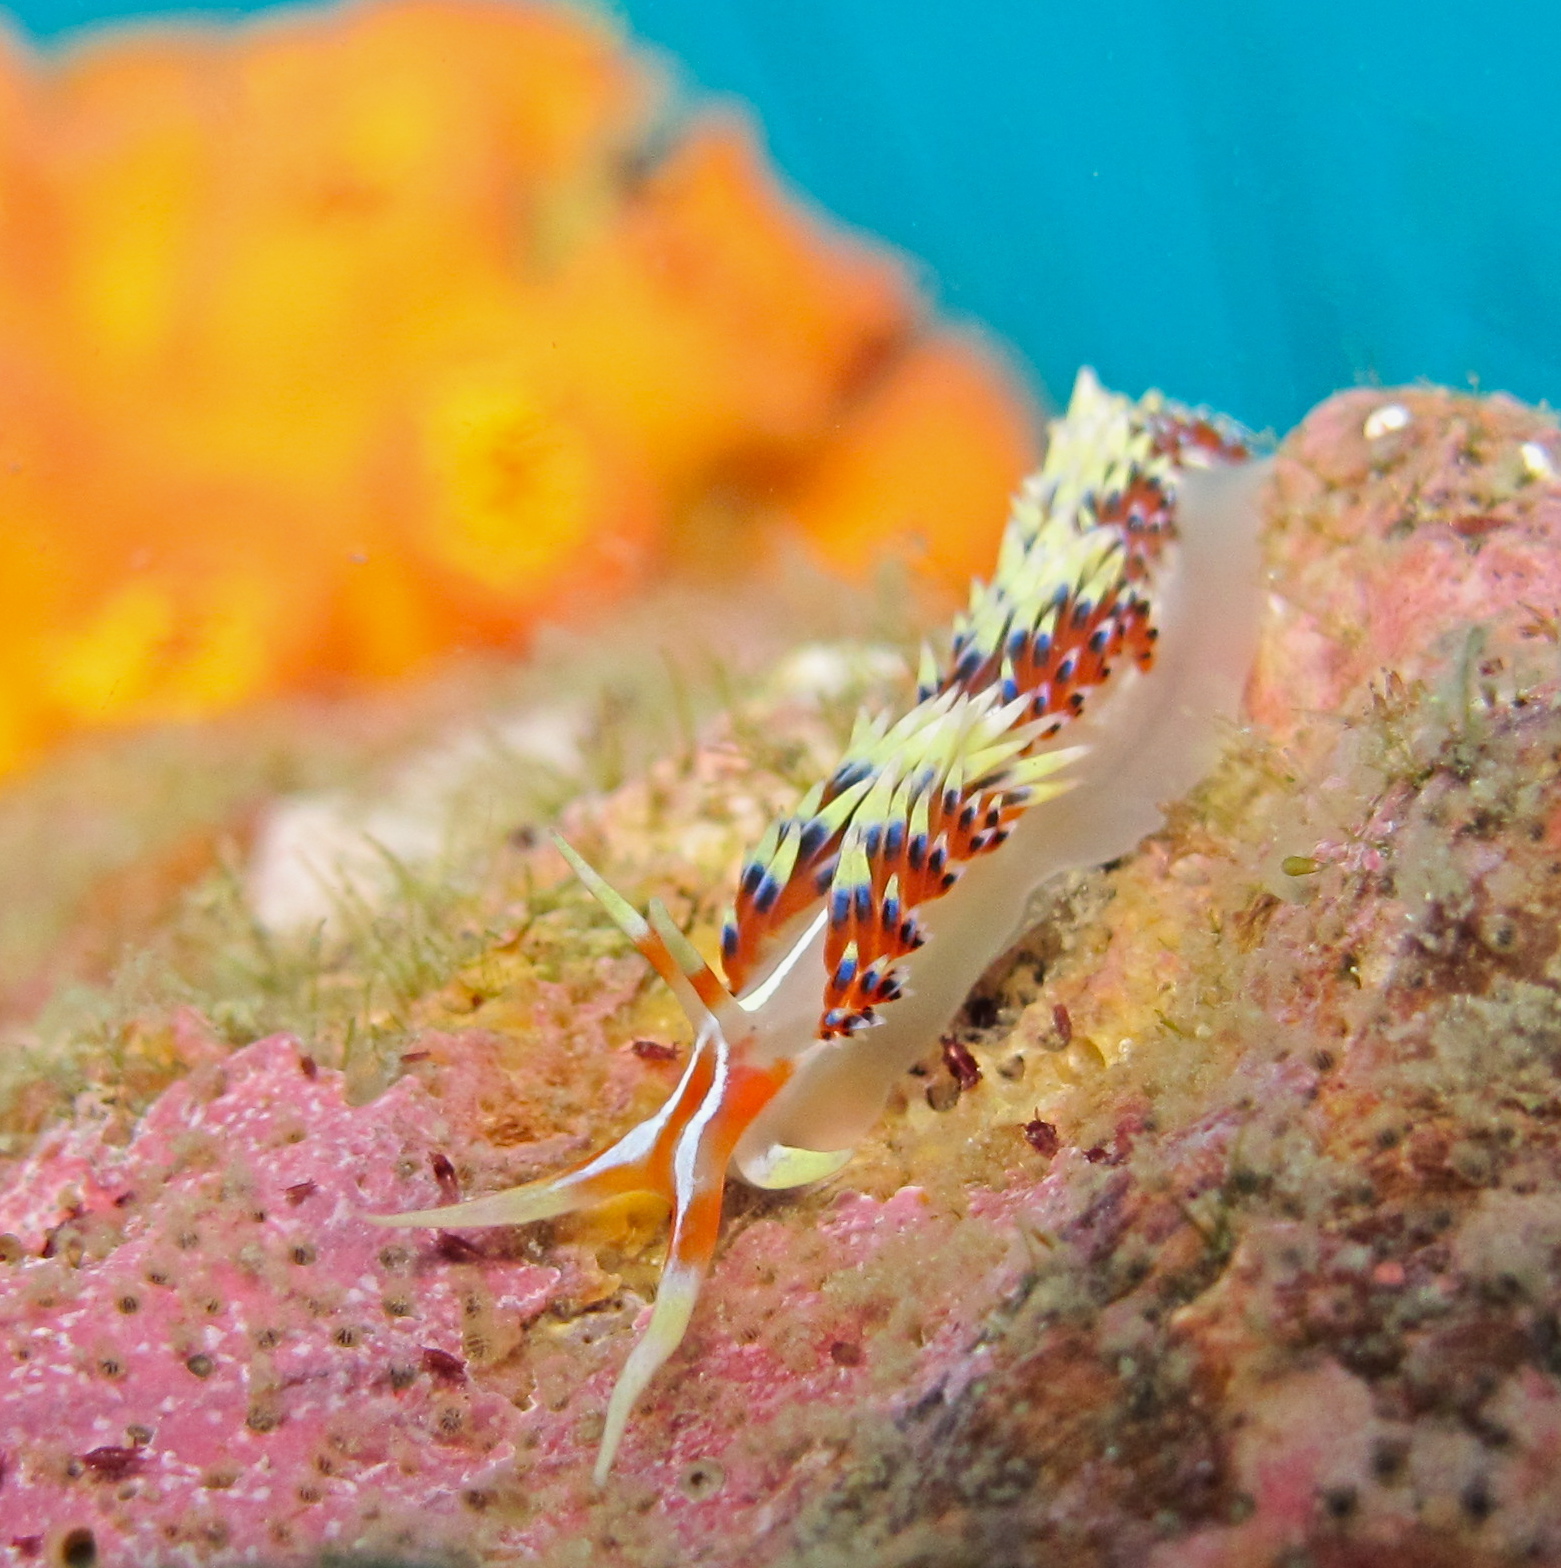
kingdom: Animalia
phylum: Mollusca
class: Gastropoda
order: Nudibranchia
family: Facelinidae
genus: Caloria
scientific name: Caloria indica
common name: Sea slug
